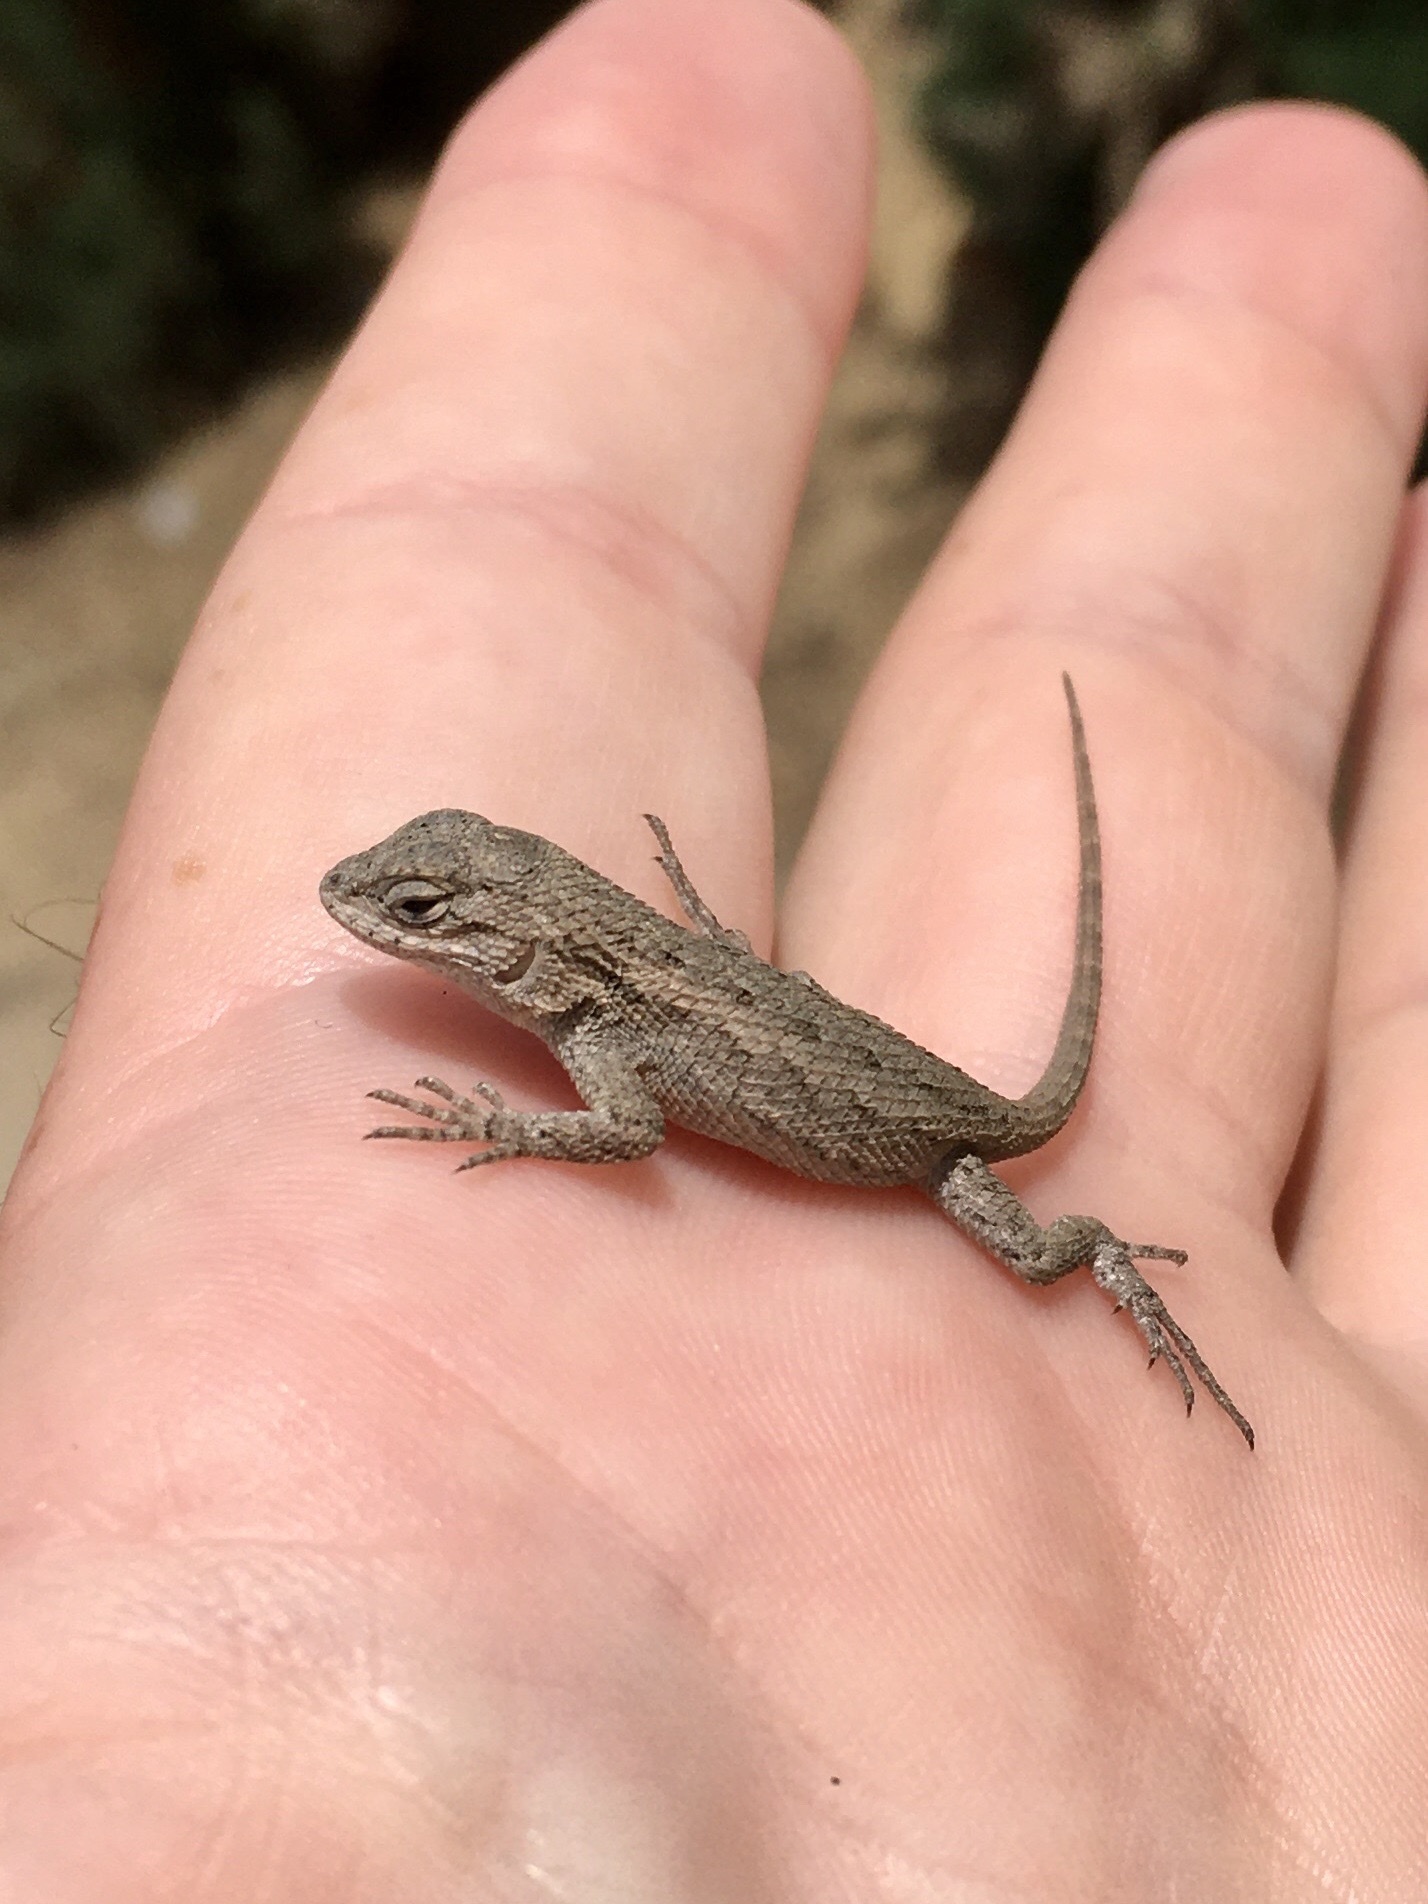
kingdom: Animalia
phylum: Chordata
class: Squamata
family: Phrynosomatidae
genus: Sceloporus
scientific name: Sceloporus occidentalis
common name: Western fence lizard
